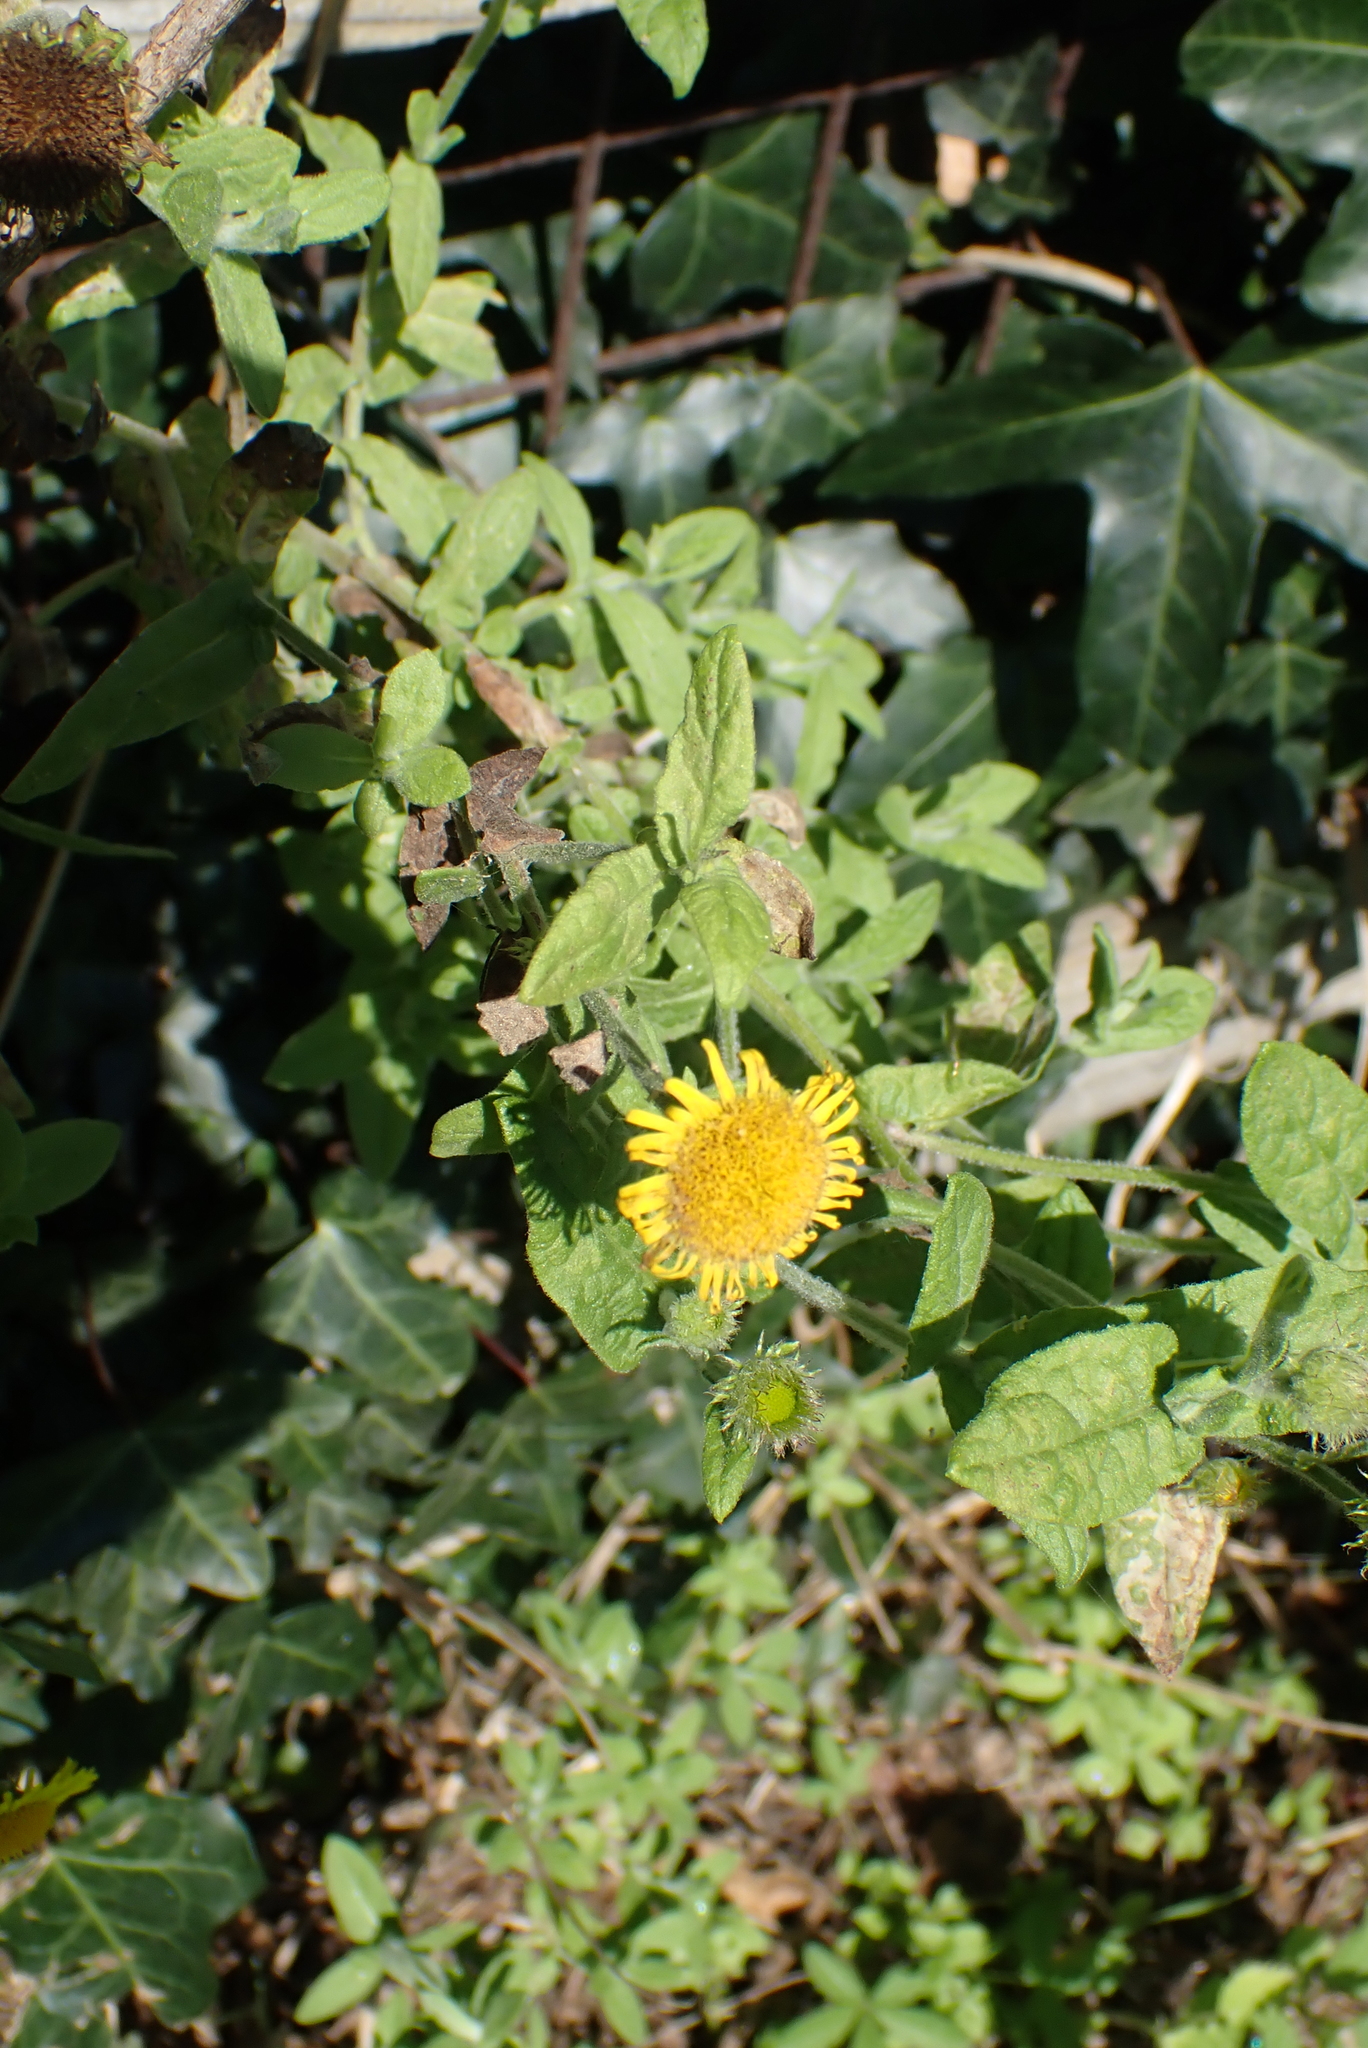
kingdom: Plantae
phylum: Tracheophyta
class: Magnoliopsida
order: Asterales
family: Asteraceae
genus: Pulicaria
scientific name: Pulicaria dysenterica
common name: Common fleabane
